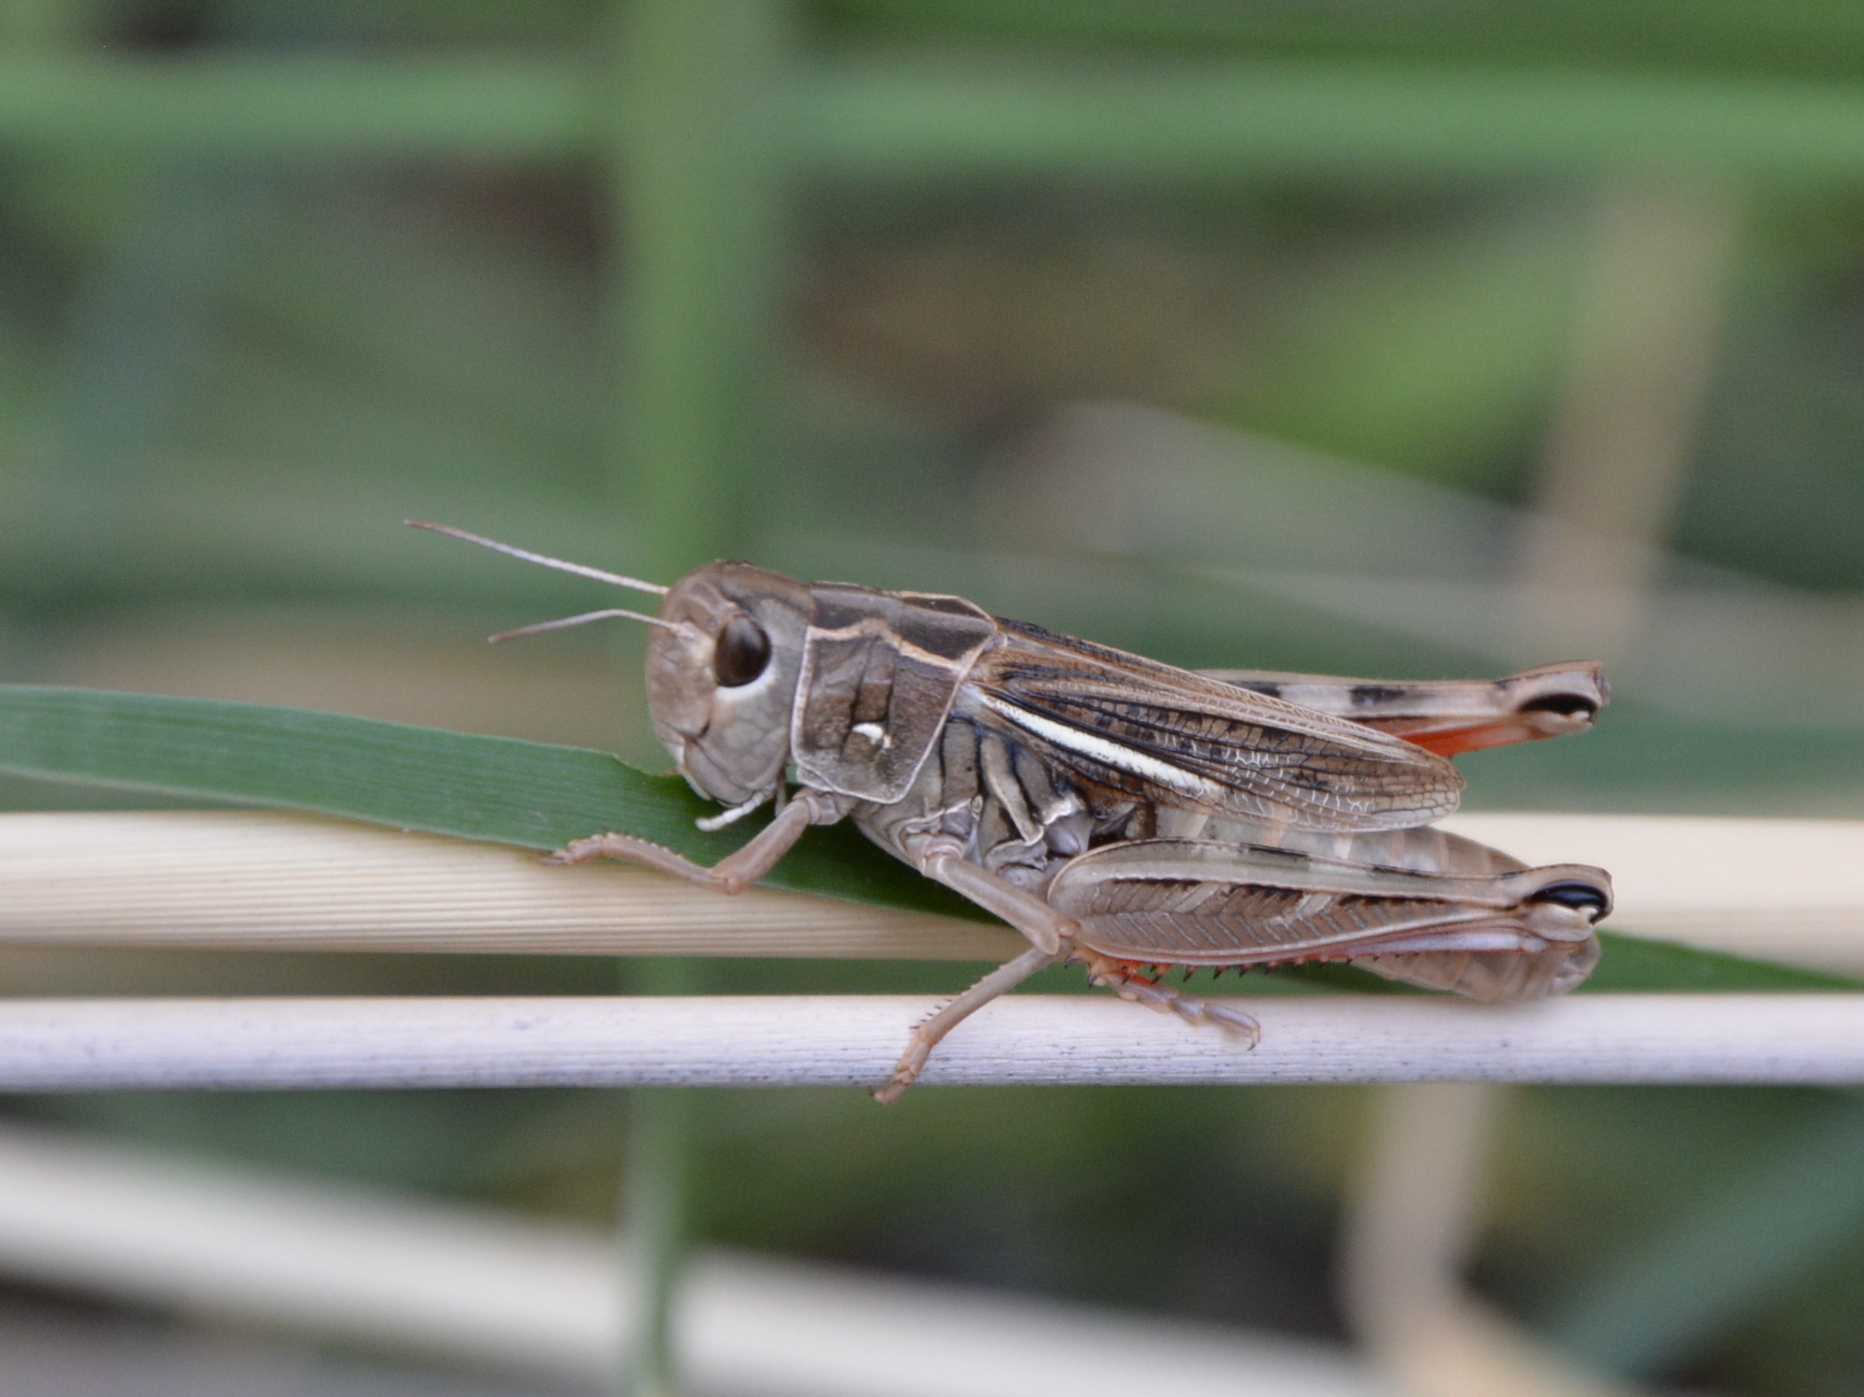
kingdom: Animalia
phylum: Arthropoda
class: Insecta
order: Orthoptera
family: Acrididae
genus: Arcyptera
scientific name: Arcyptera microptera
